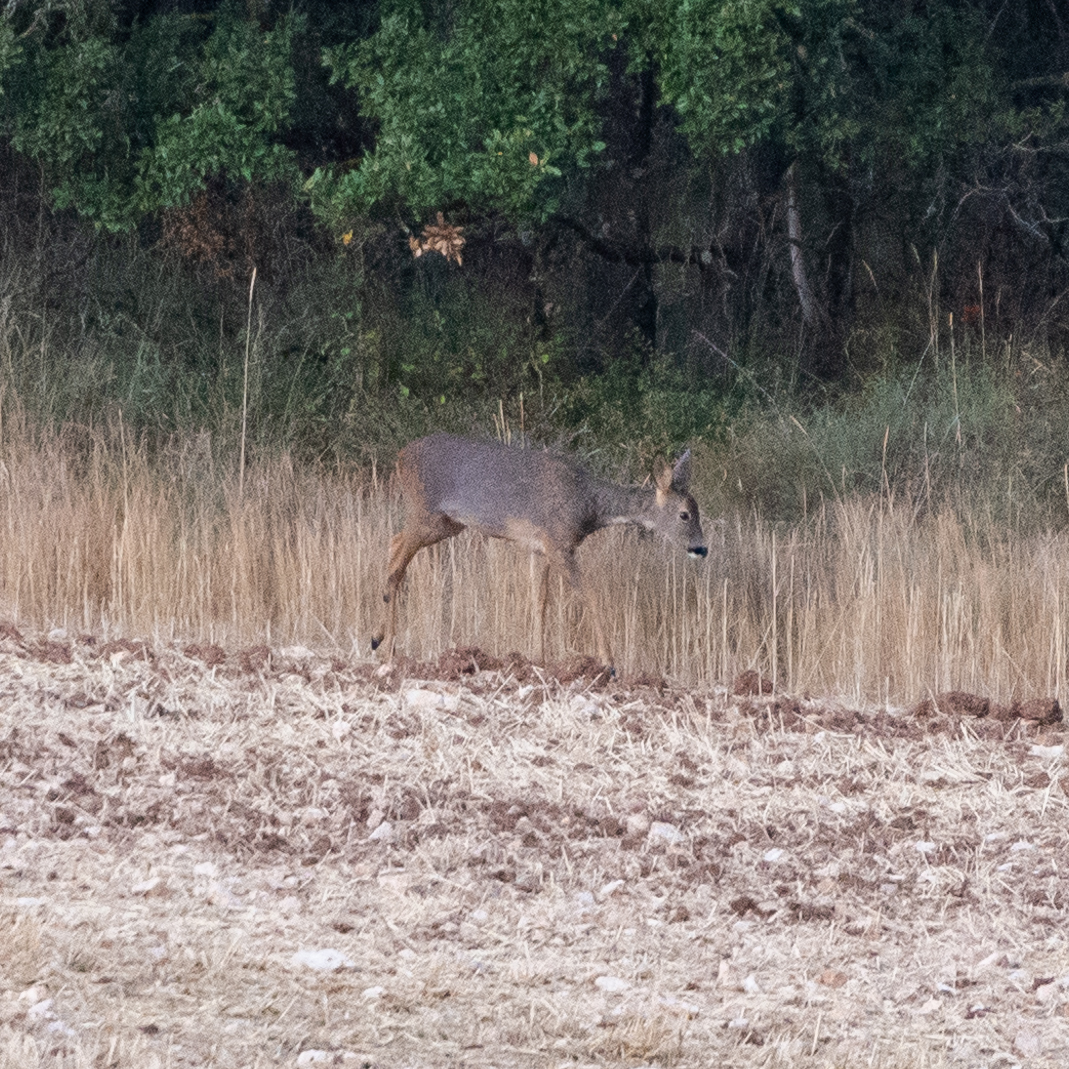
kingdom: Animalia
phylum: Chordata
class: Mammalia
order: Artiodactyla
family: Cervidae
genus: Capreolus
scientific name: Capreolus capreolus
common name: Western roe deer
